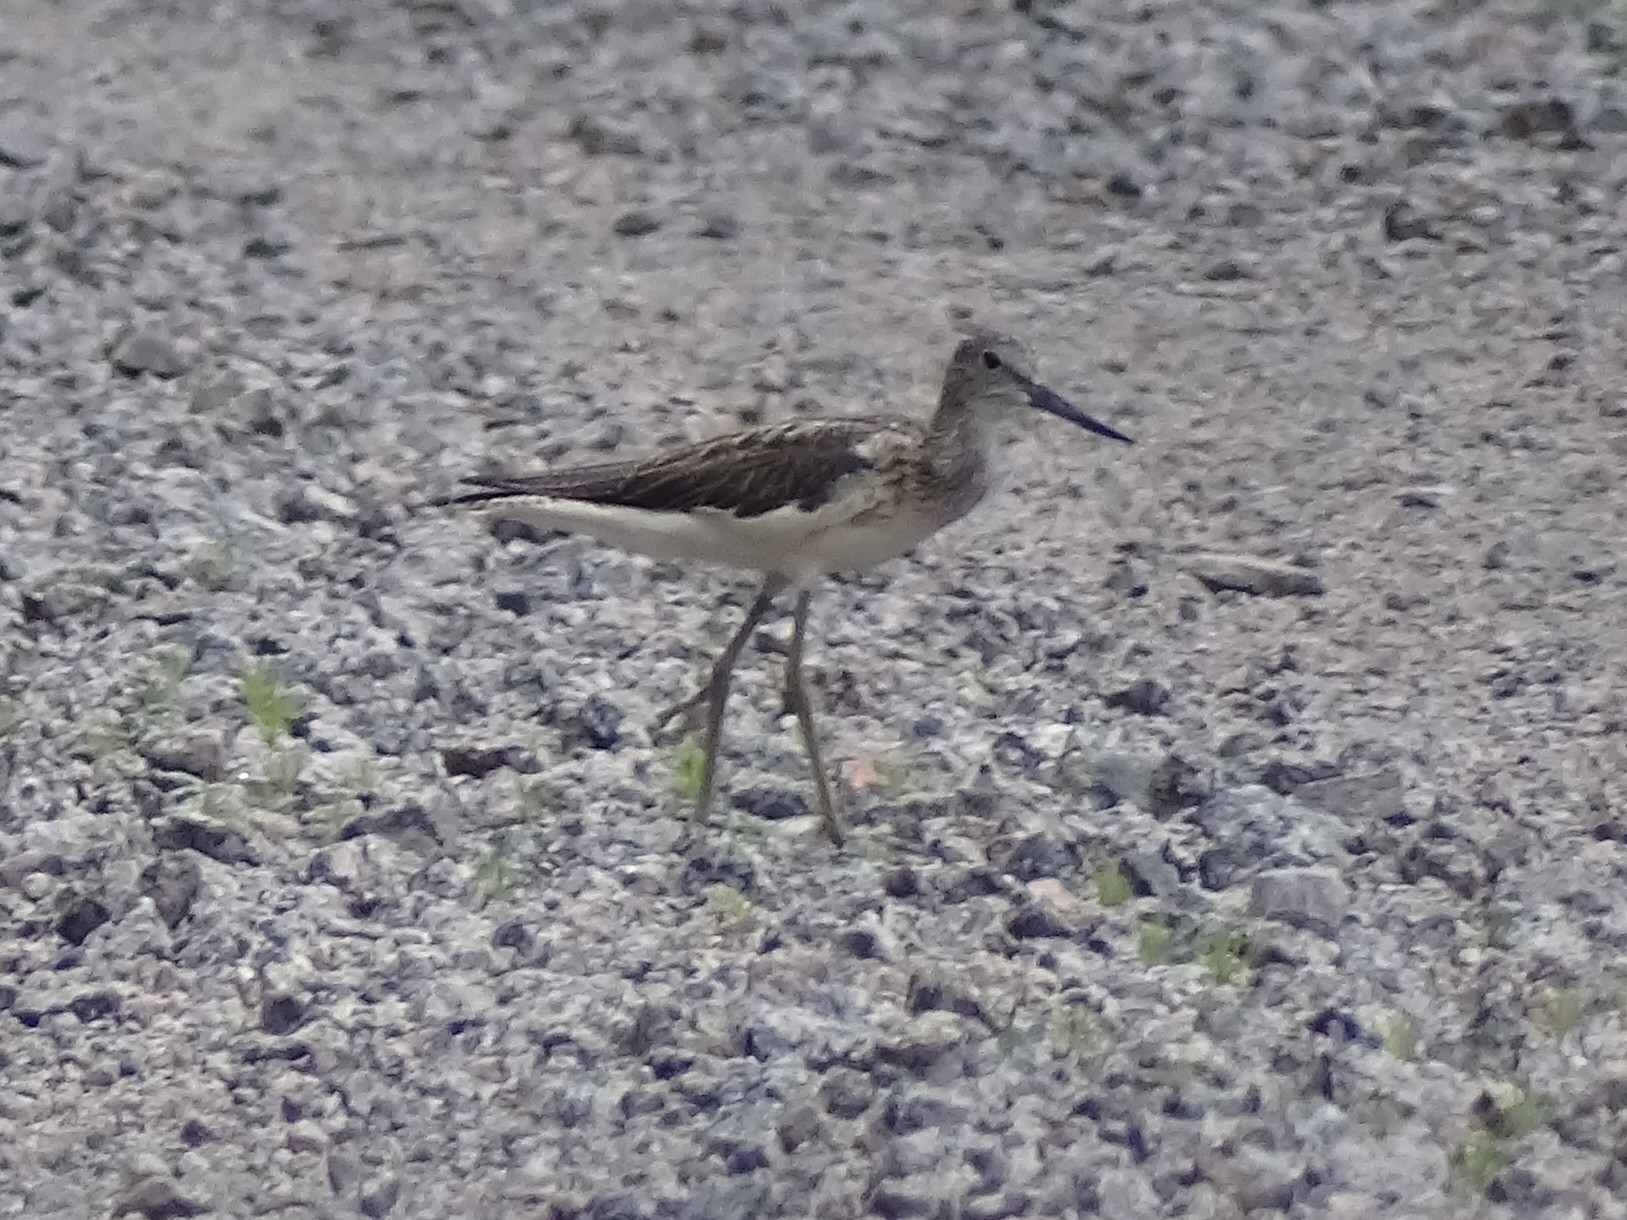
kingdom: Animalia
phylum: Chordata
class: Aves
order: Charadriiformes
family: Scolopacidae
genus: Tringa
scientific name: Tringa nebularia
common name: Common greenshank
